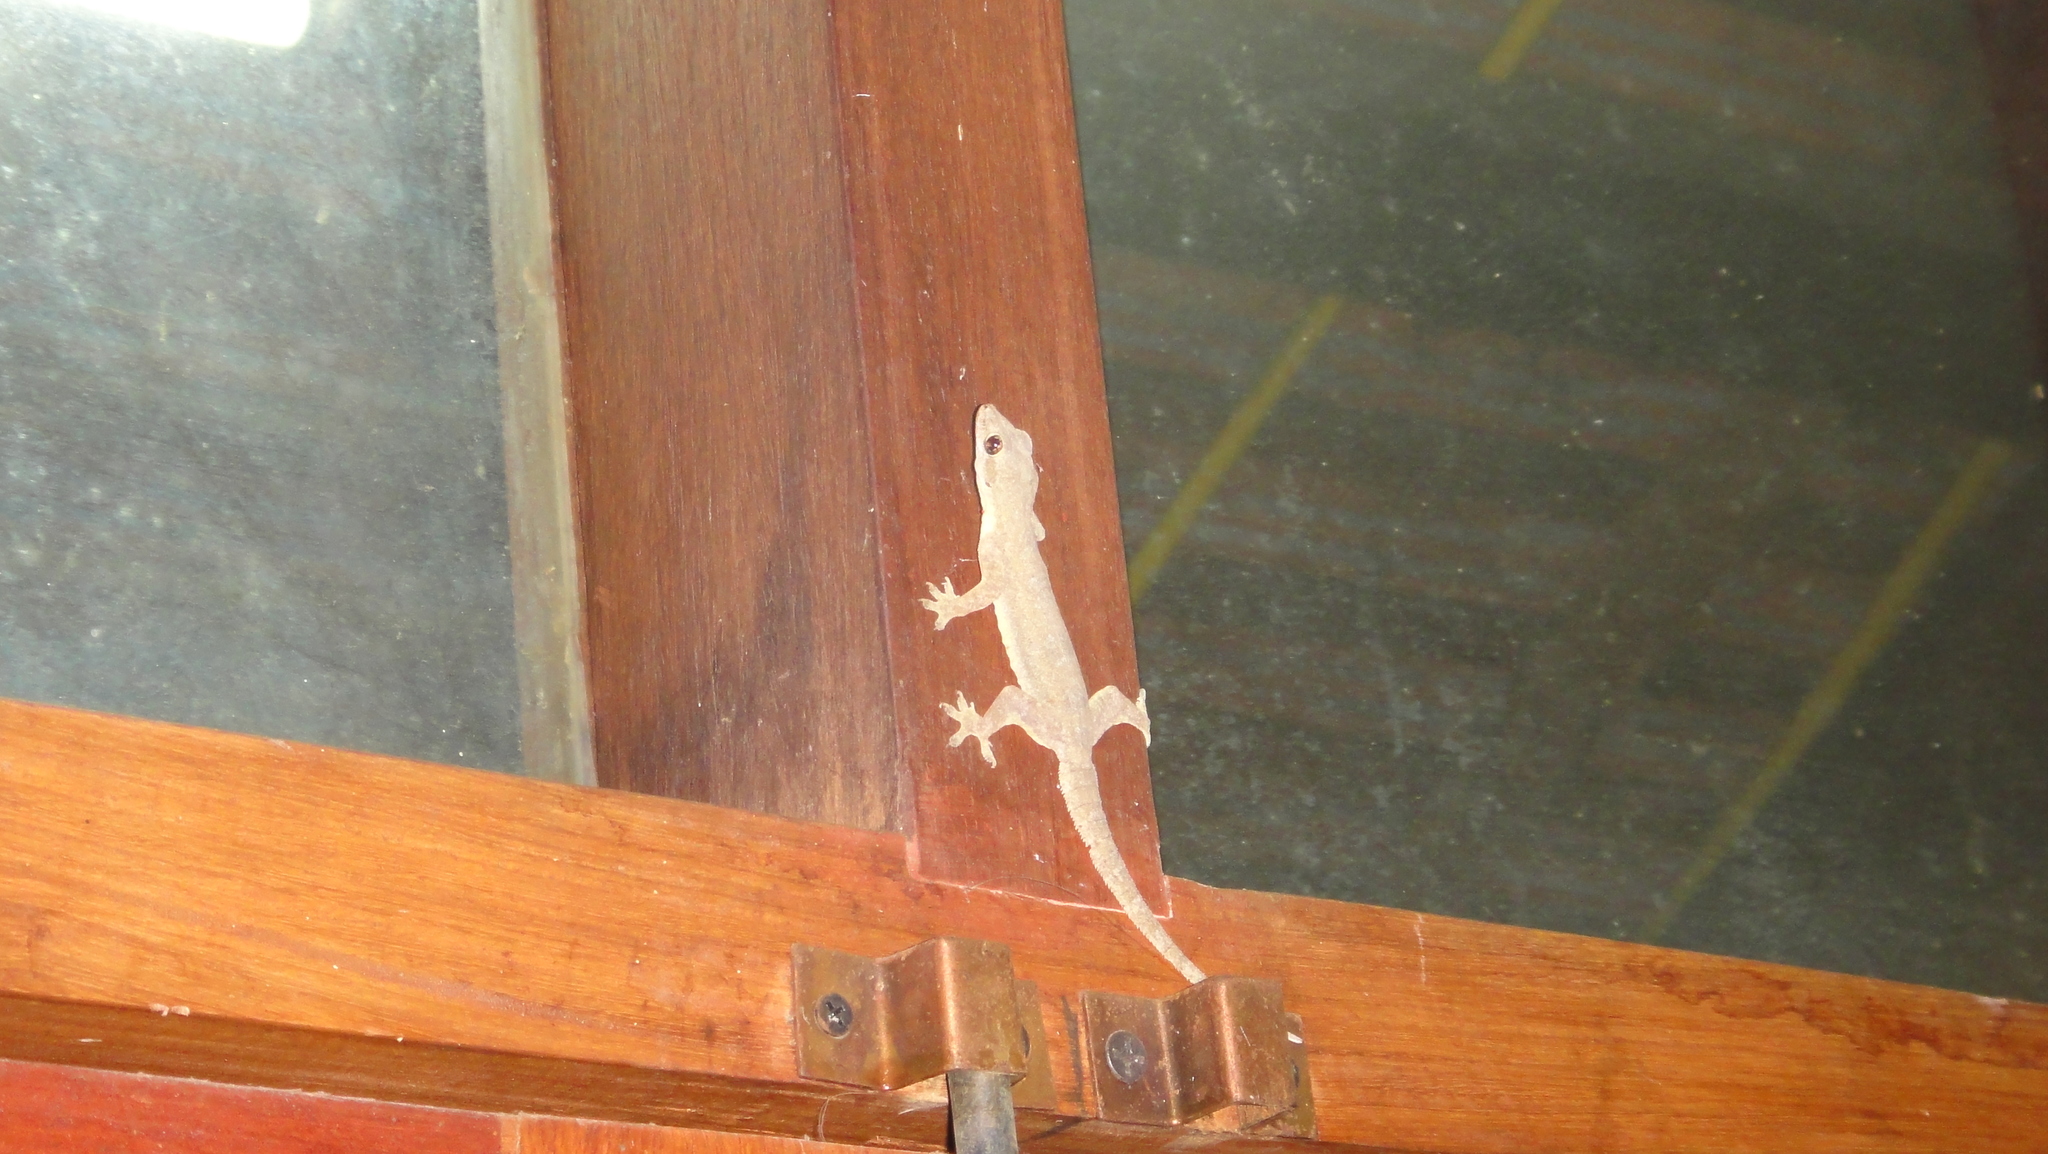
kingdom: Animalia
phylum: Chordata
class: Squamata
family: Gekkonidae
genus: Hemidactylus
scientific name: Hemidactylus platyurus
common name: Flat-tailed house gecko
